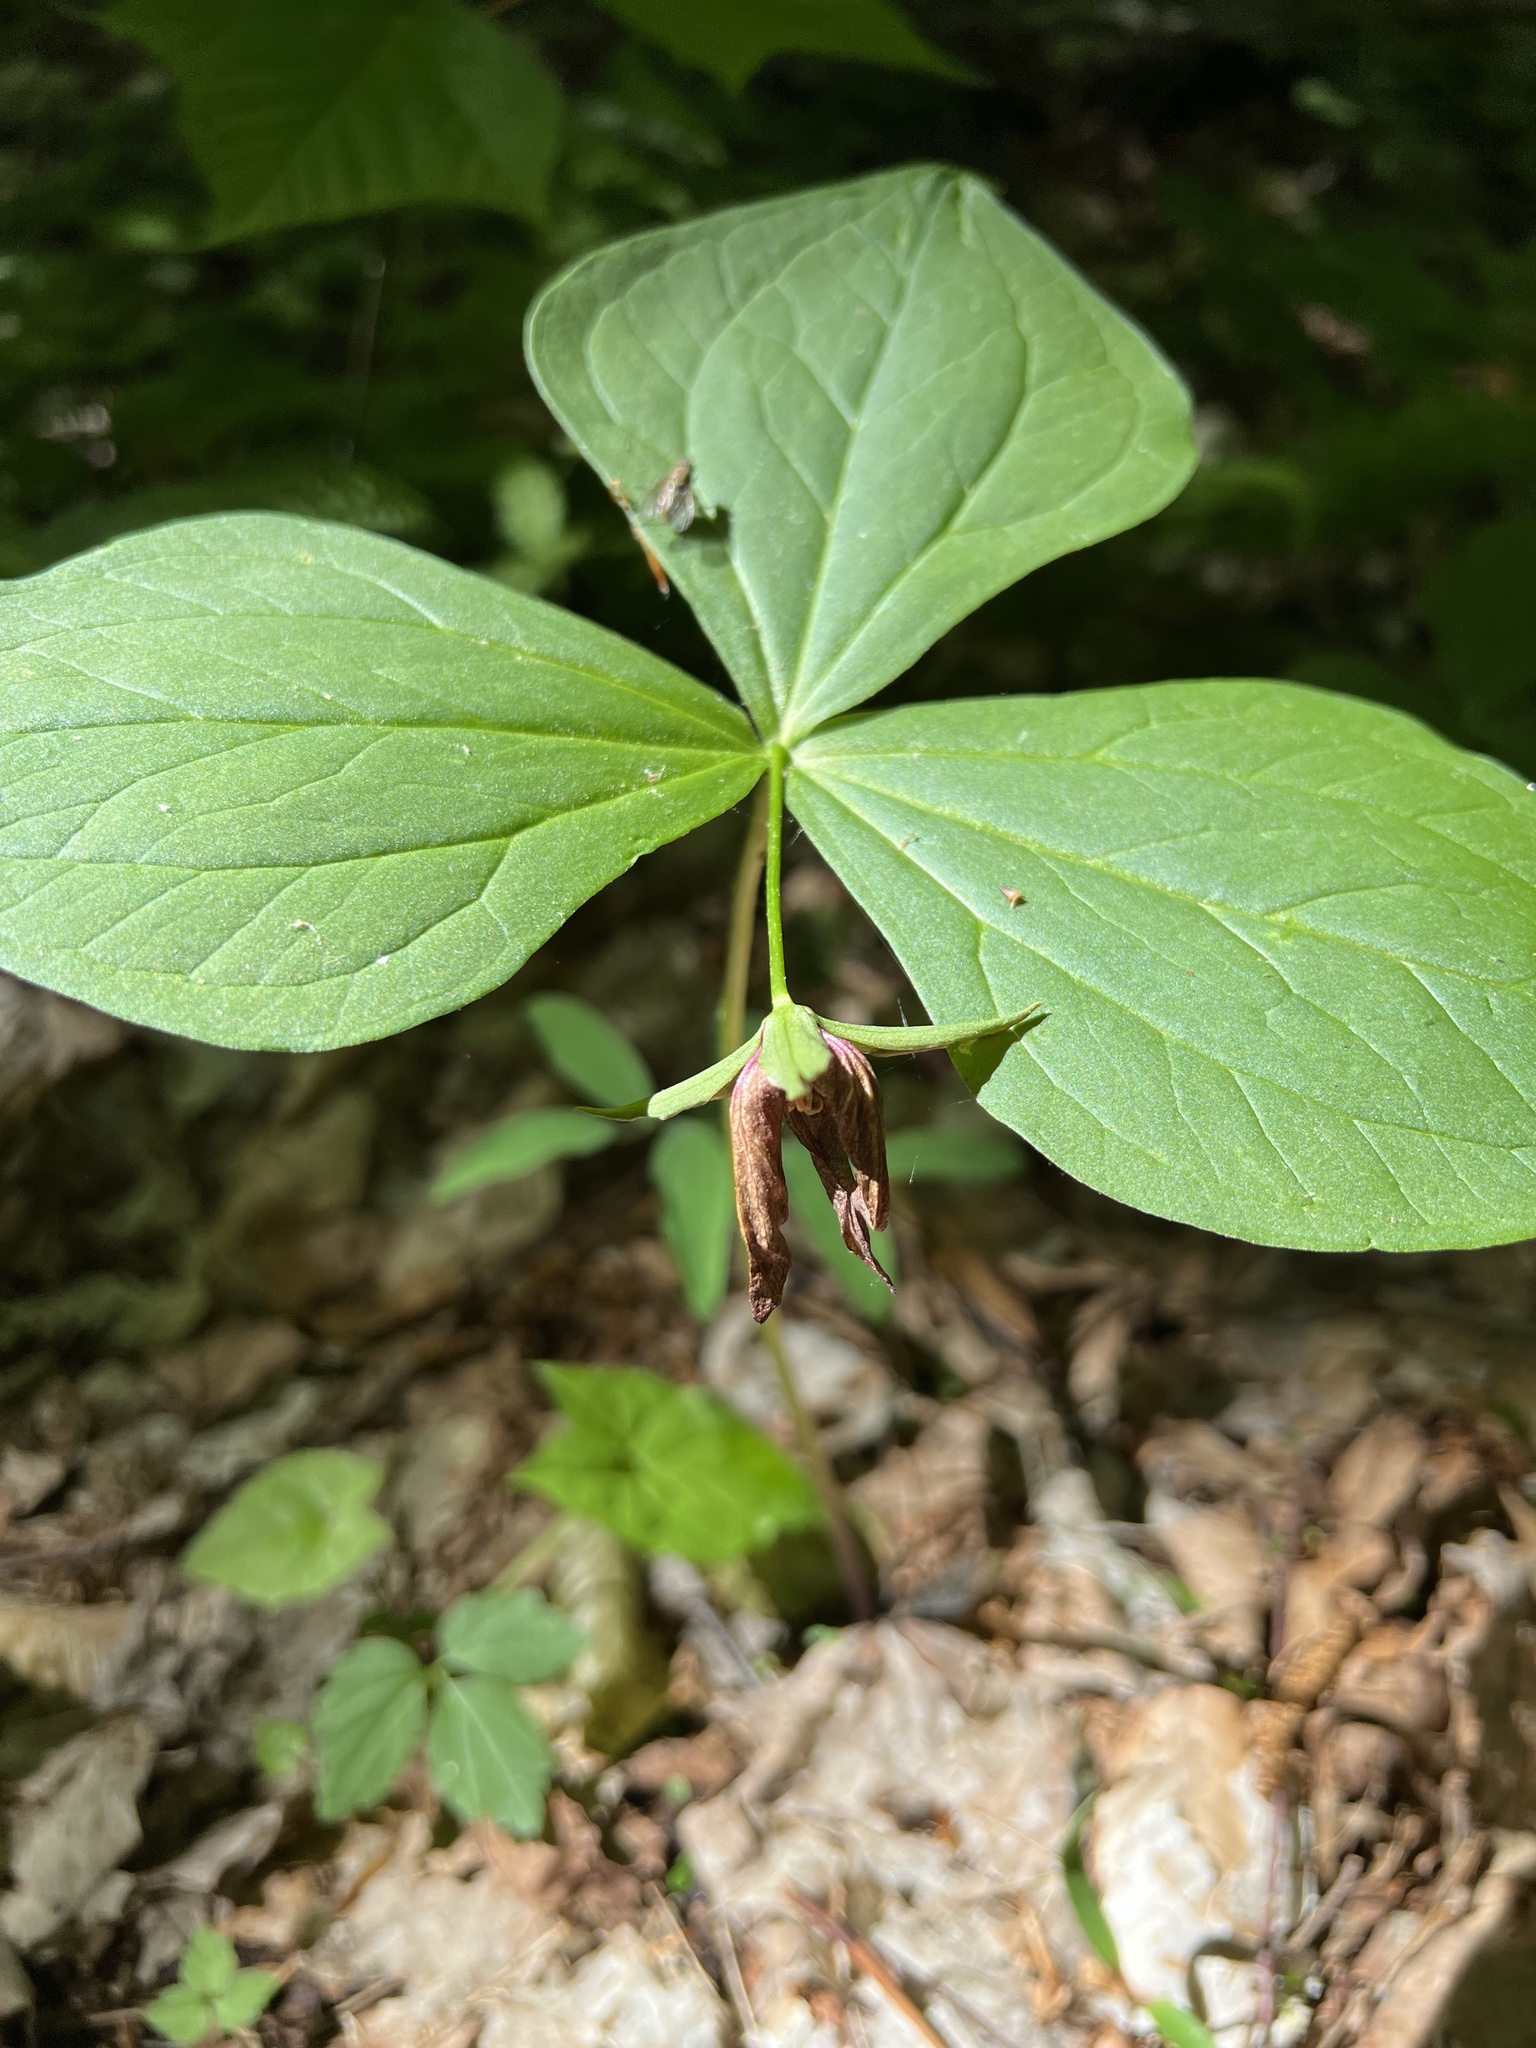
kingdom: Plantae
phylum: Tracheophyta
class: Liliopsida
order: Liliales
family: Melanthiaceae
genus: Trillium
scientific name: Trillium erectum
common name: Purple trillium
